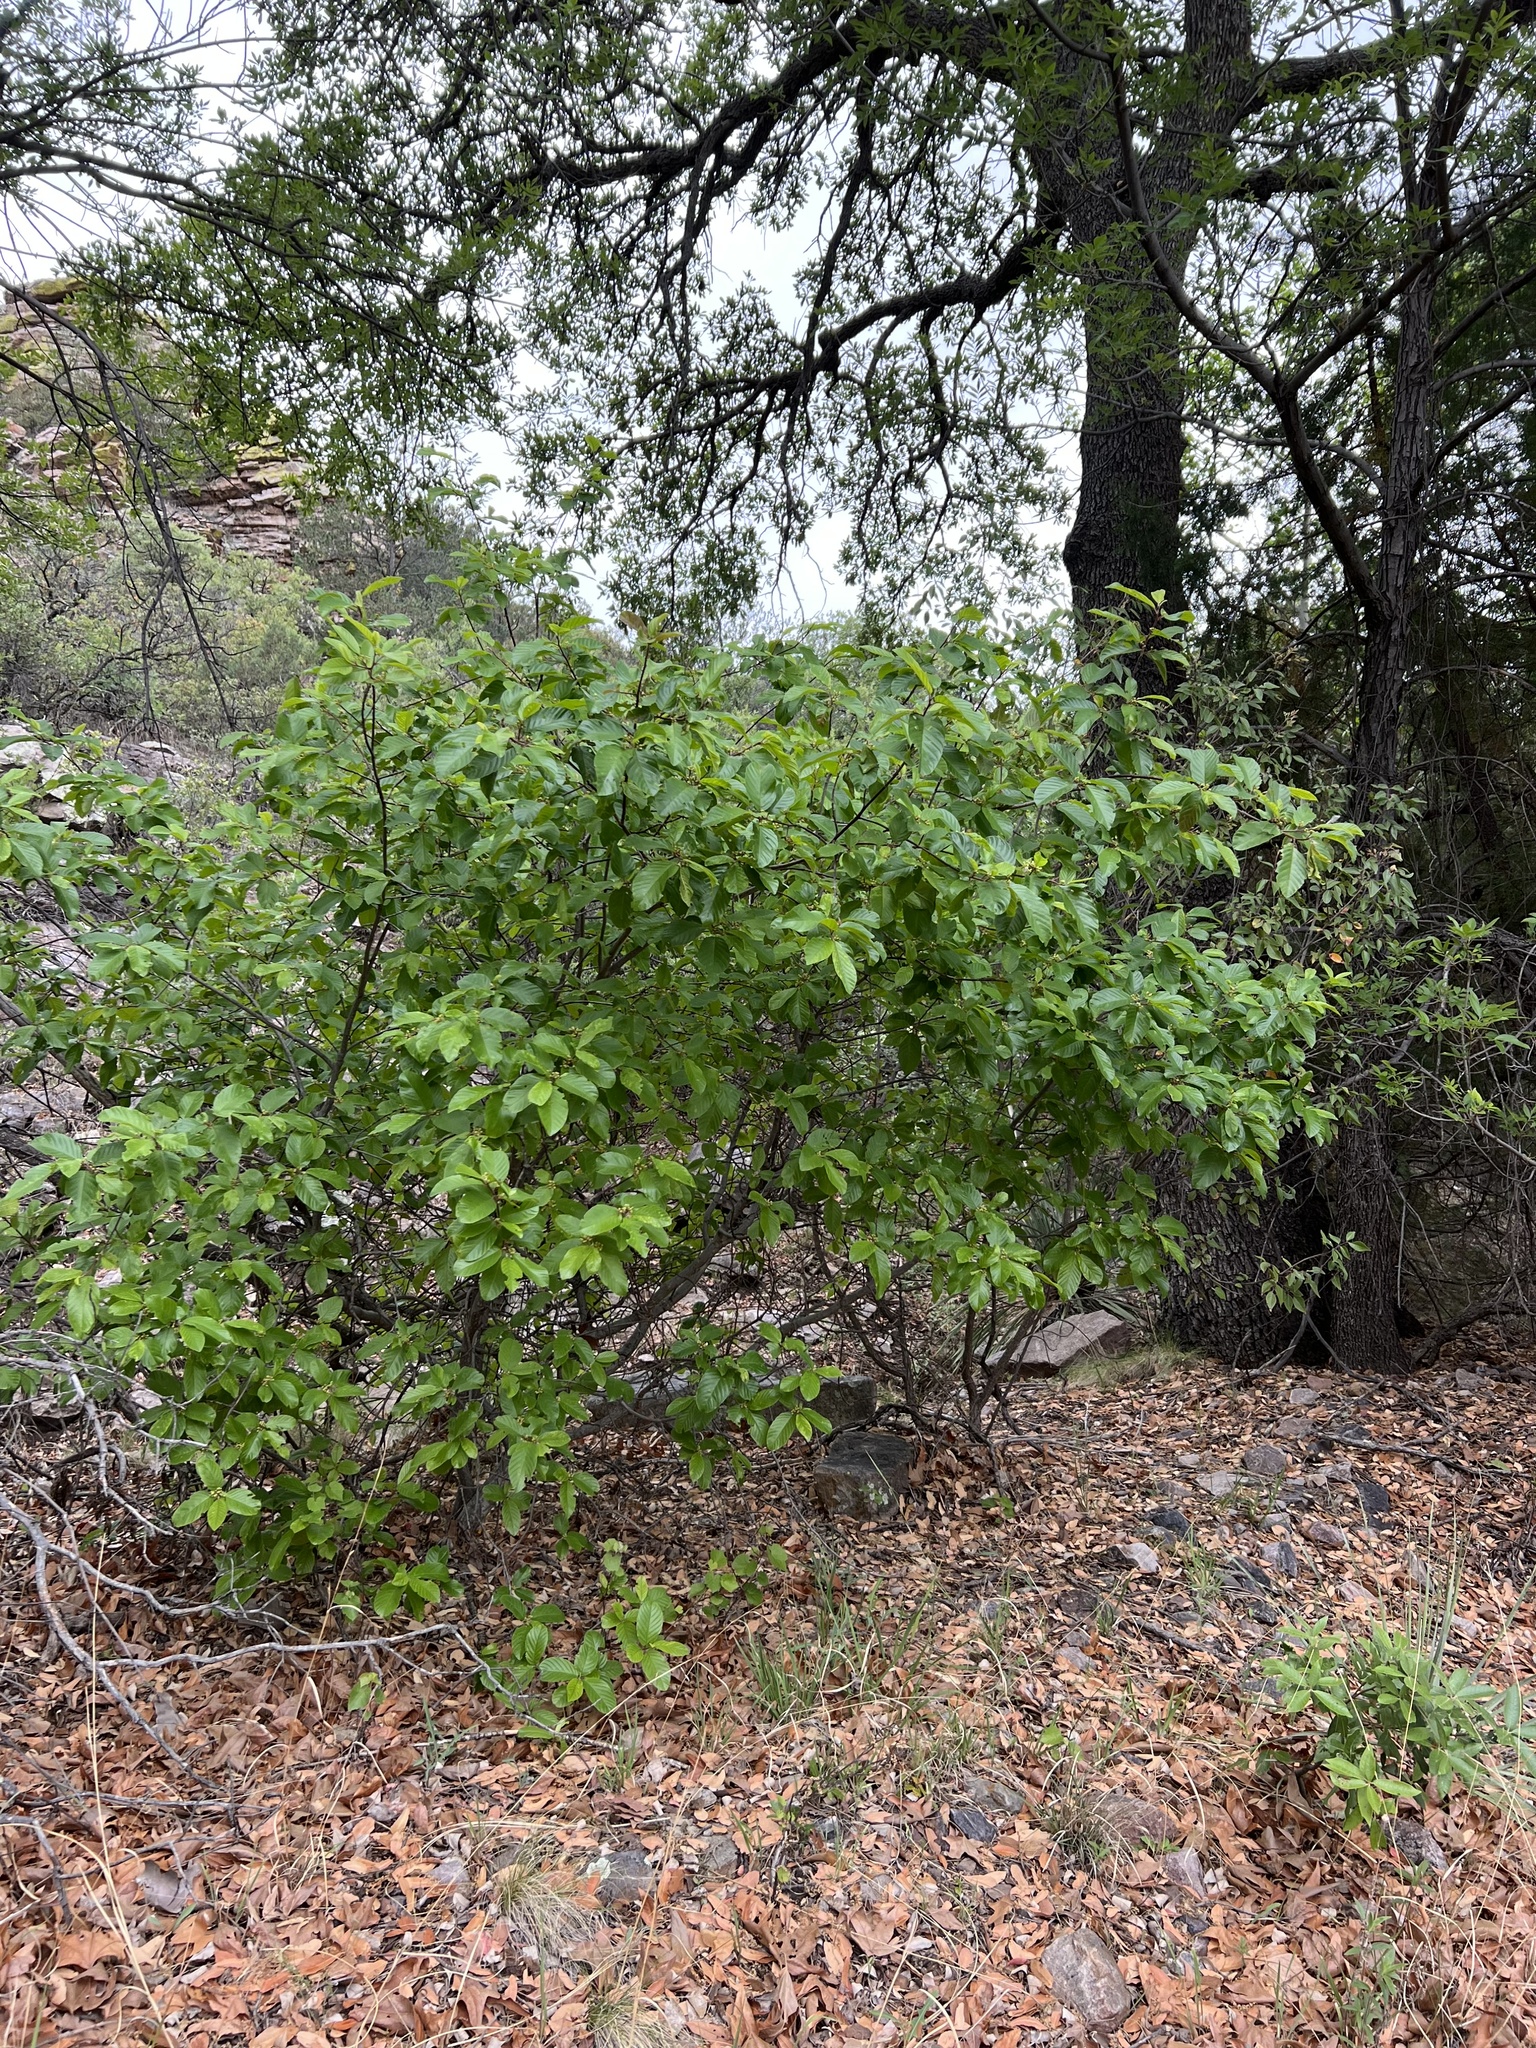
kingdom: Plantae
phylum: Tracheophyta
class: Magnoliopsida
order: Rosales
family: Rhamnaceae
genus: Frangula
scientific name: Frangula betulifolia
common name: Birch-leaf buckthorn
